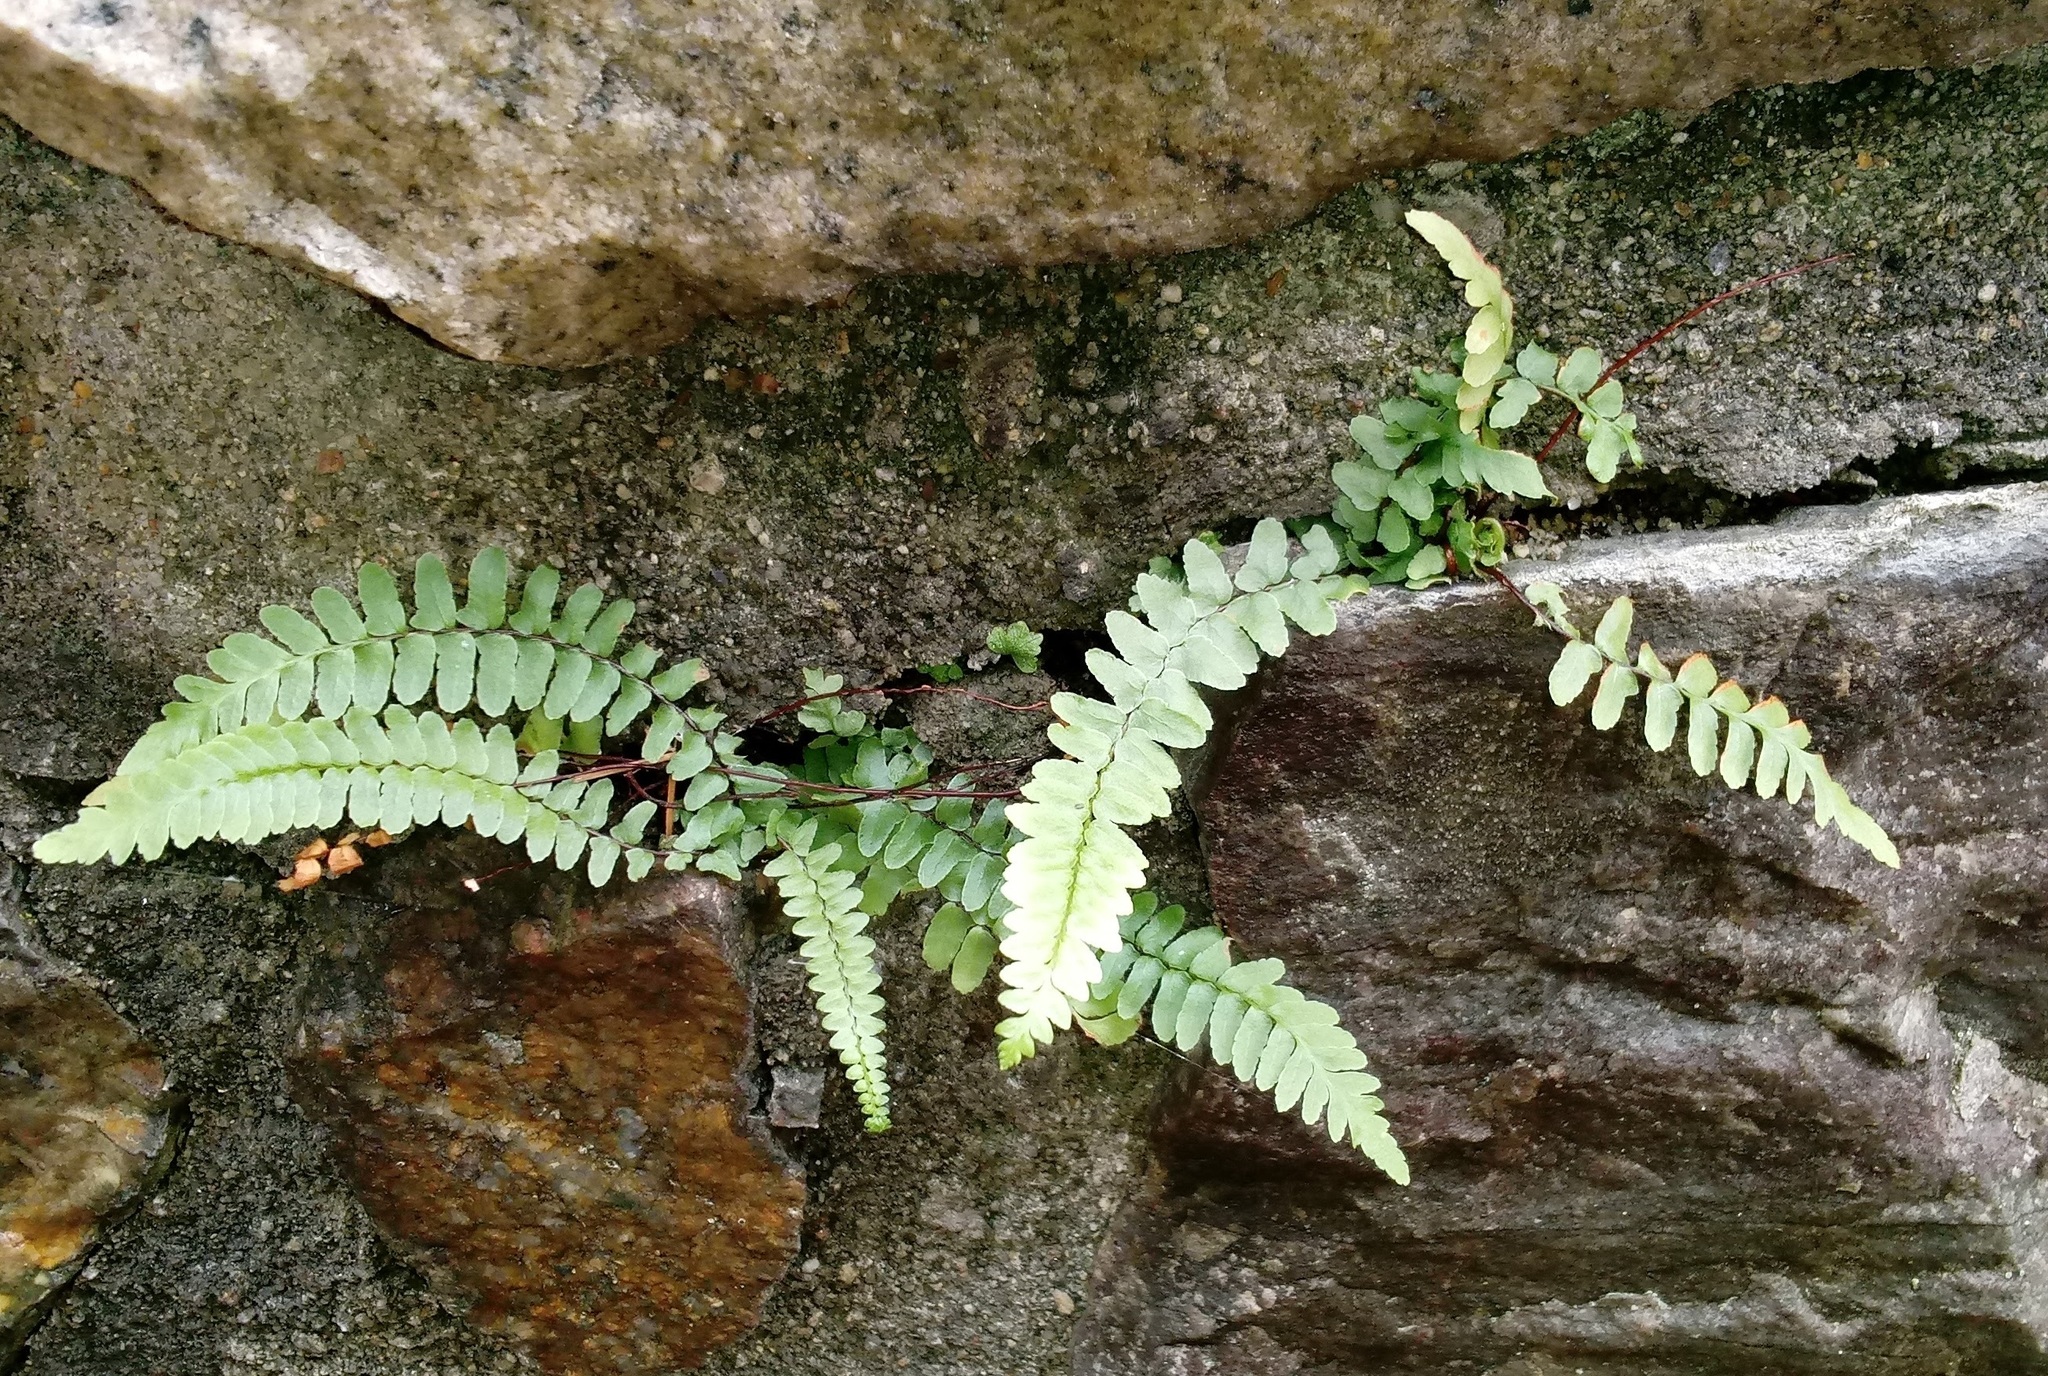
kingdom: Plantae
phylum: Tracheophyta
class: Polypodiopsida
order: Polypodiales
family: Aspleniaceae
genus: Asplenium
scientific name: Asplenium platyneuron
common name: Ebony spleenwort
